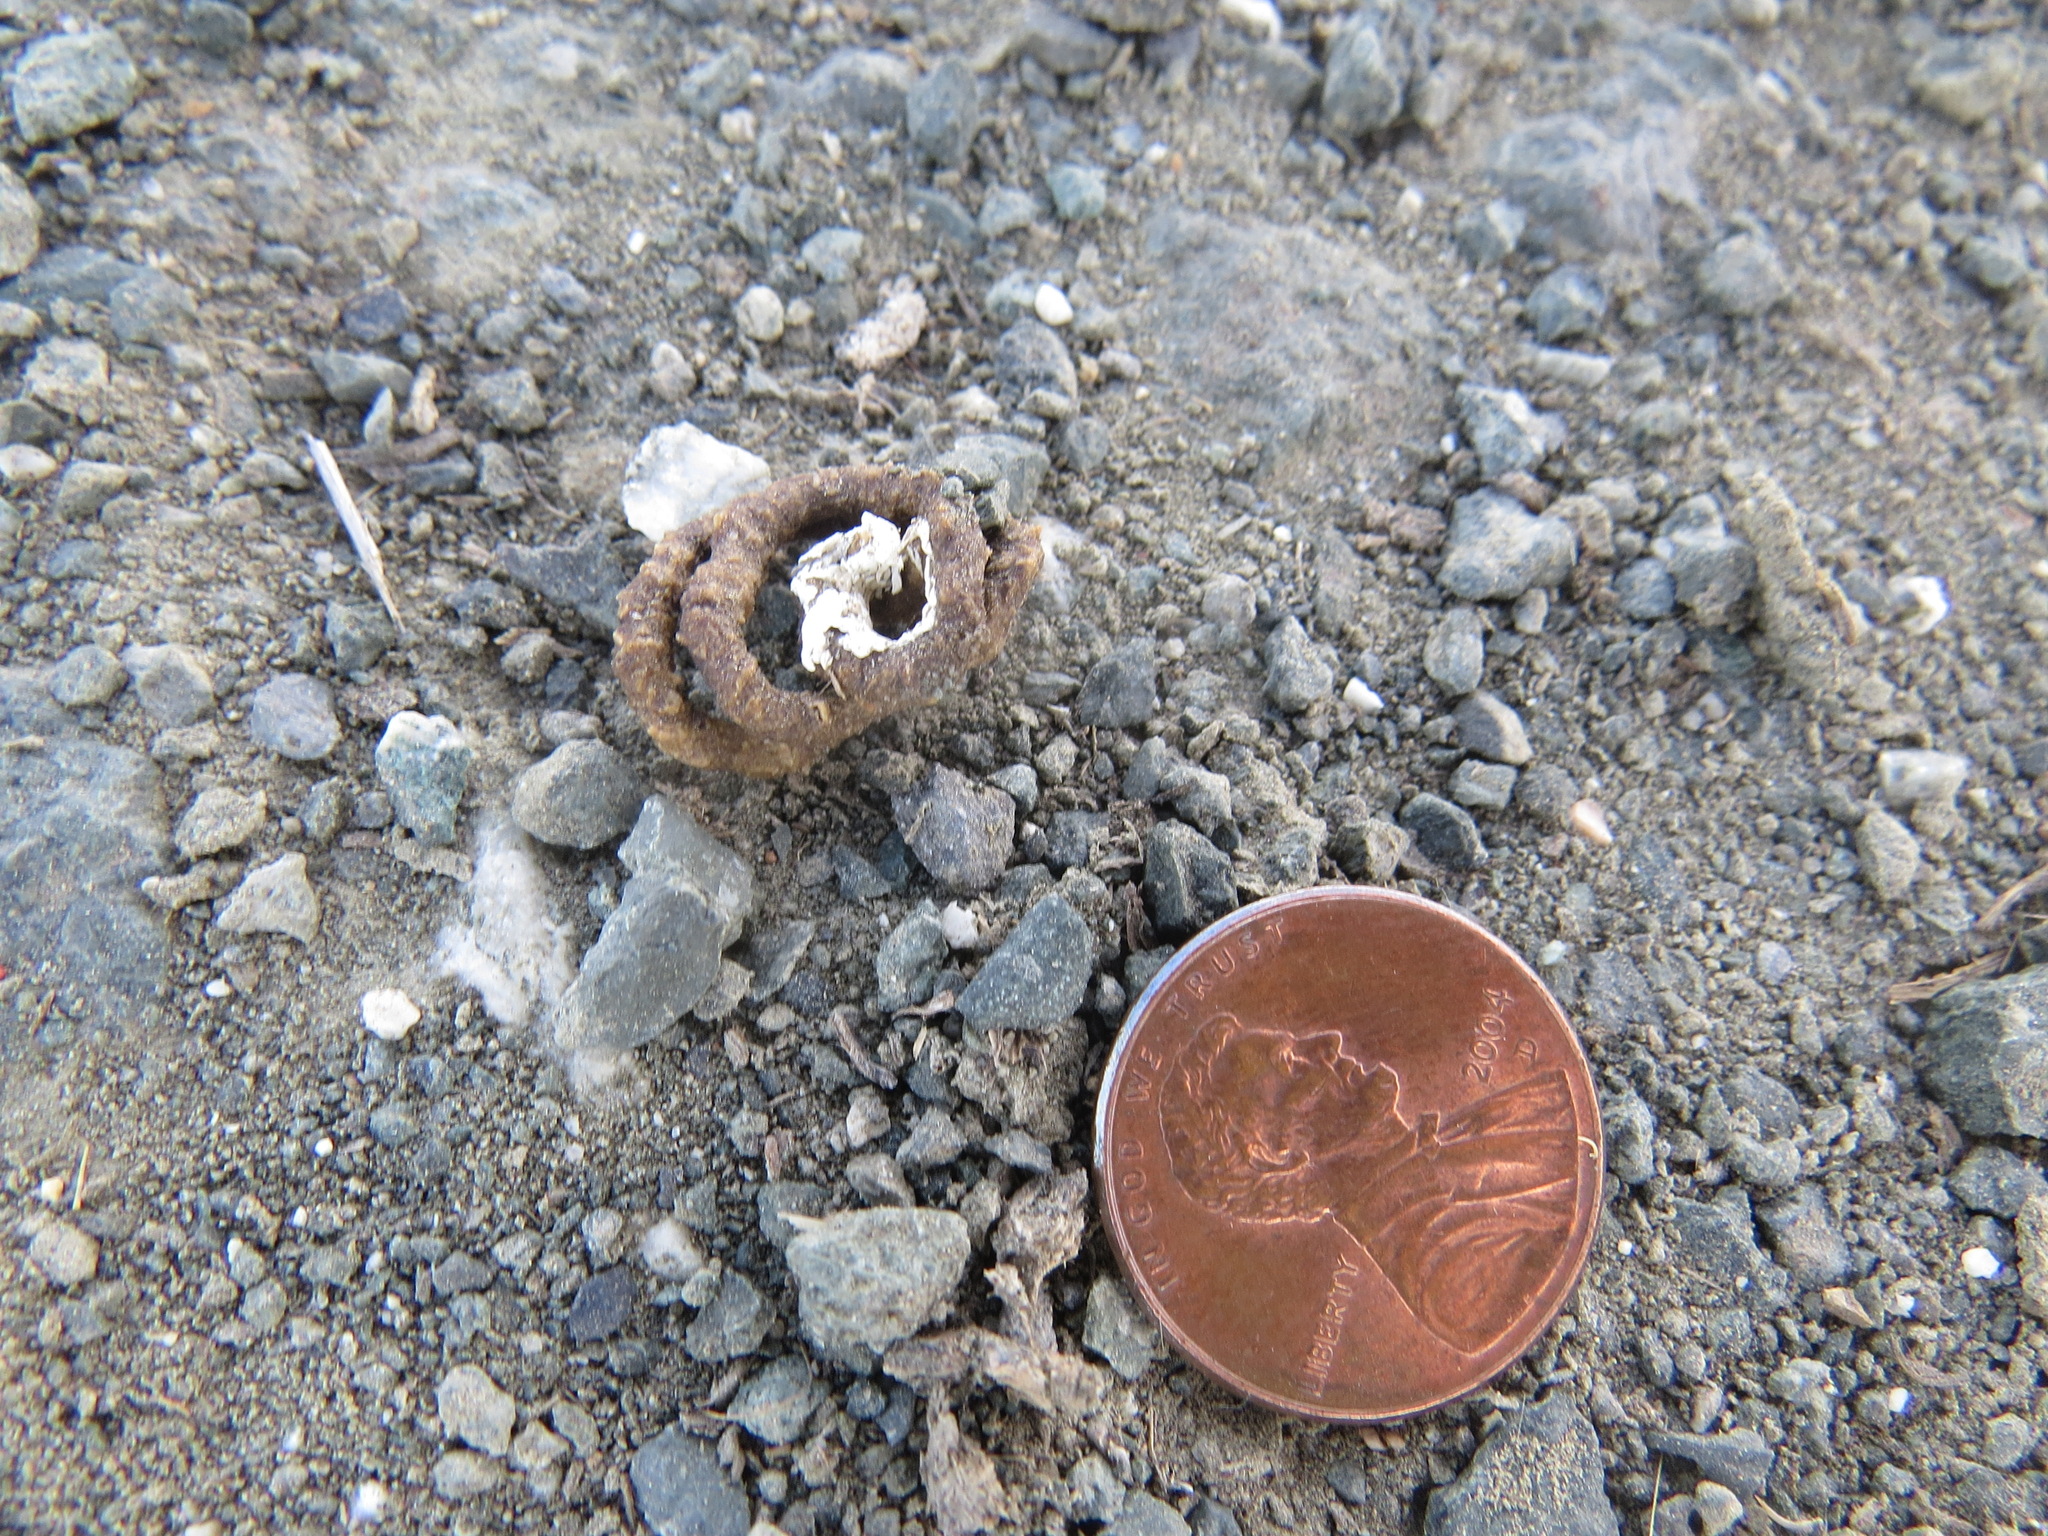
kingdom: Animalia
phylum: Chordata
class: Aves
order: Columbiformes
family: Columbidae
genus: Zenaida
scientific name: Zenaida macroura
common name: Mourning dove
